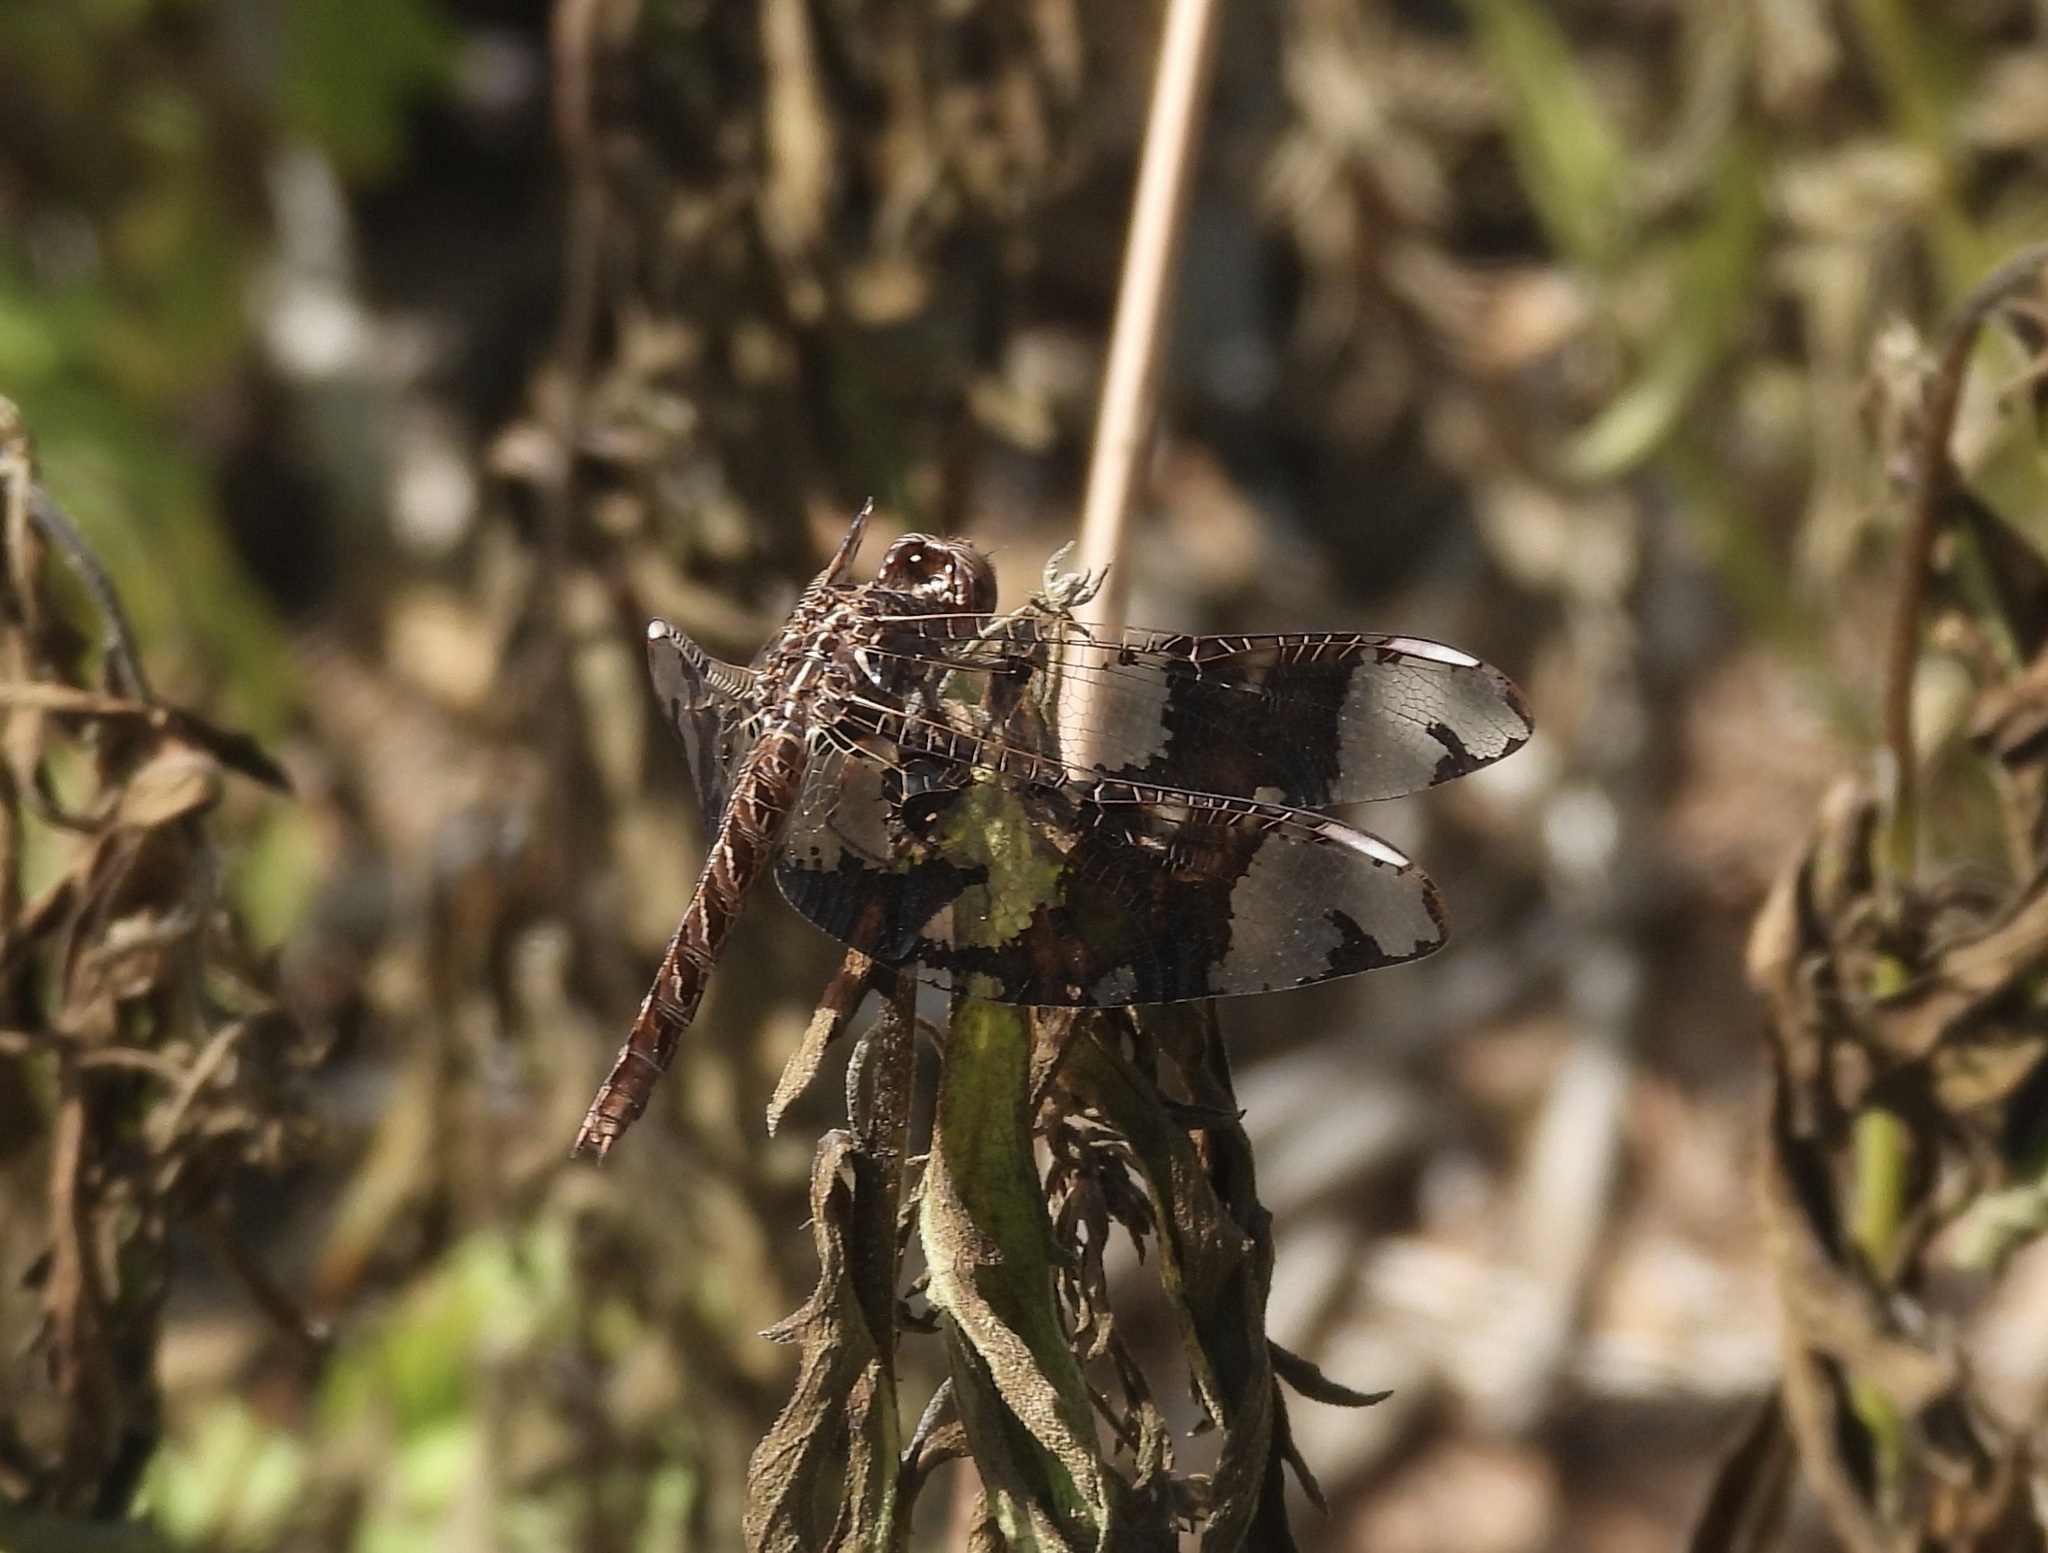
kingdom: Animalia
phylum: Arthropoda
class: Insecta
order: Odonata
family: Libellulidae
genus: Pseudoleon
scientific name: Pseudoleon superbus
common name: Filigree skimmer
